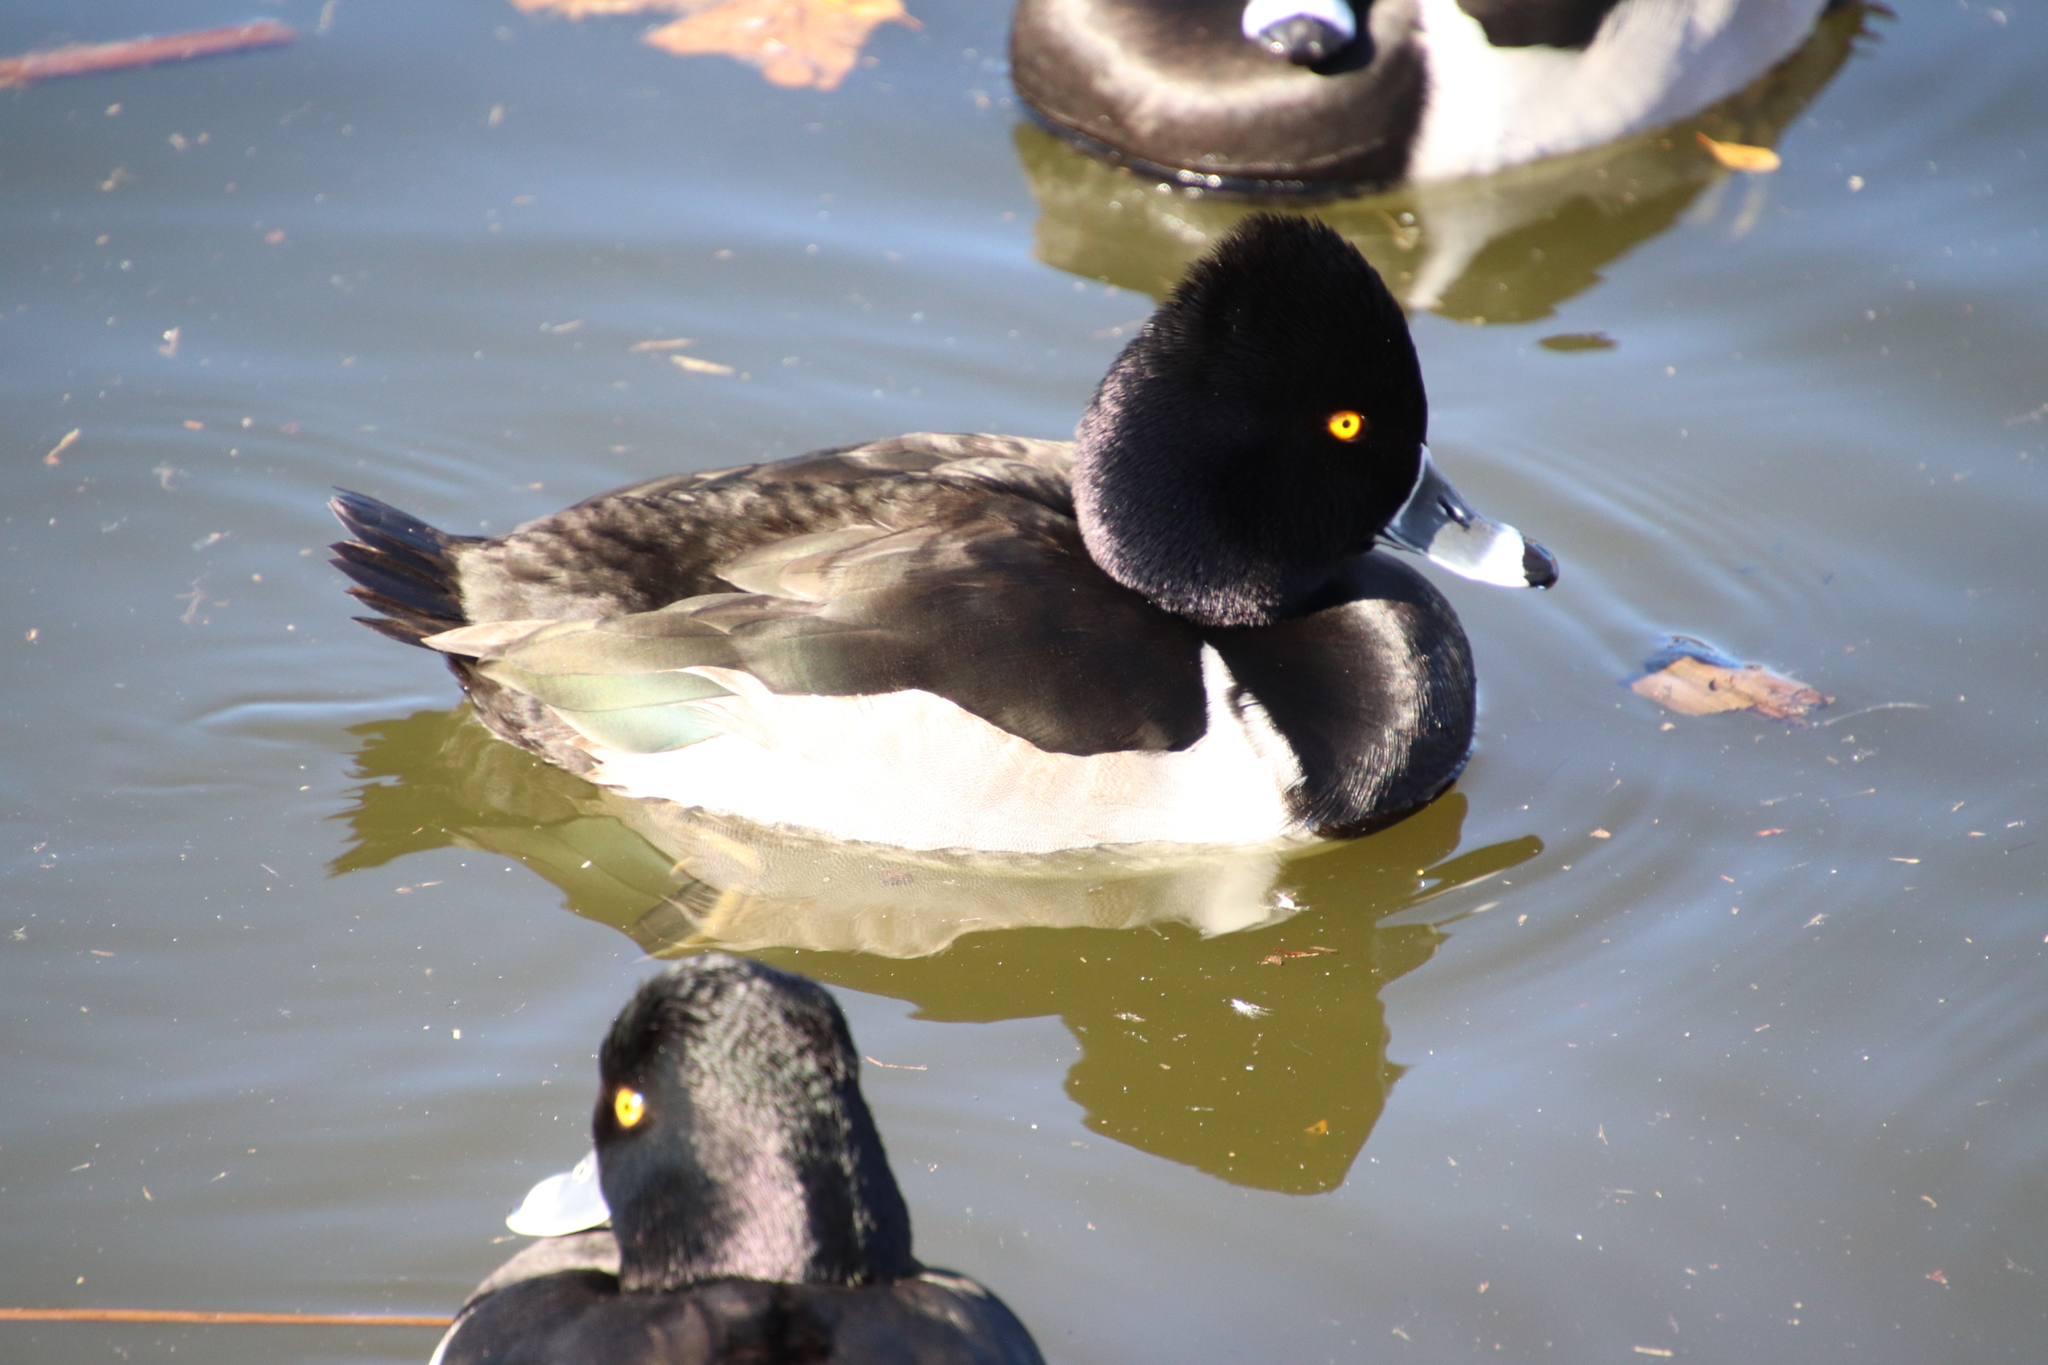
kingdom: Animalia
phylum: Chordata
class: Aves
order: Anseriformes
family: Anatidae
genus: Aythya
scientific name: Aythya collaris
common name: Ring-necked duck
